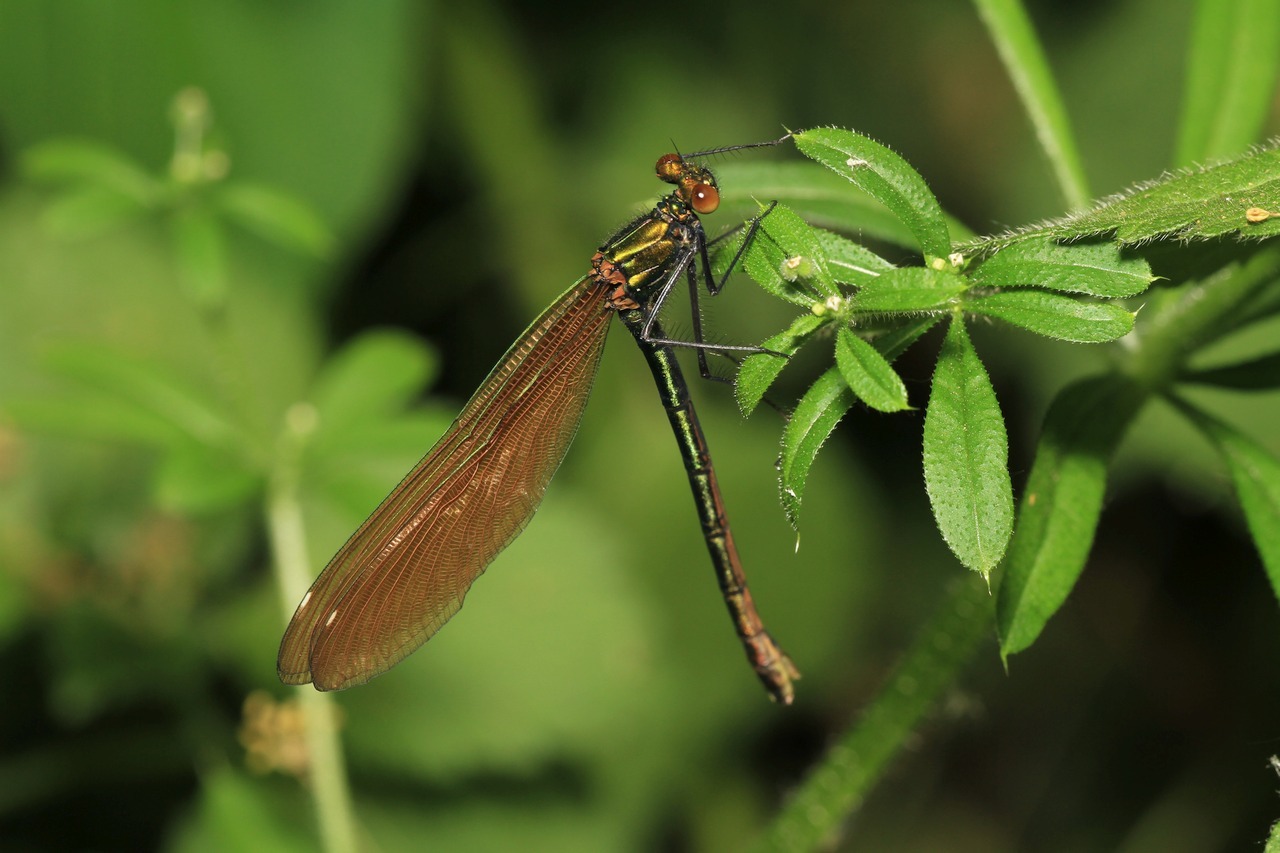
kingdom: Animalia
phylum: Arthropoda
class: Insecta
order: Odonata
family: Calopterygidae
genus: Calopteryx
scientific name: Calopteryx virgo
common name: Beautiful demoiselle
